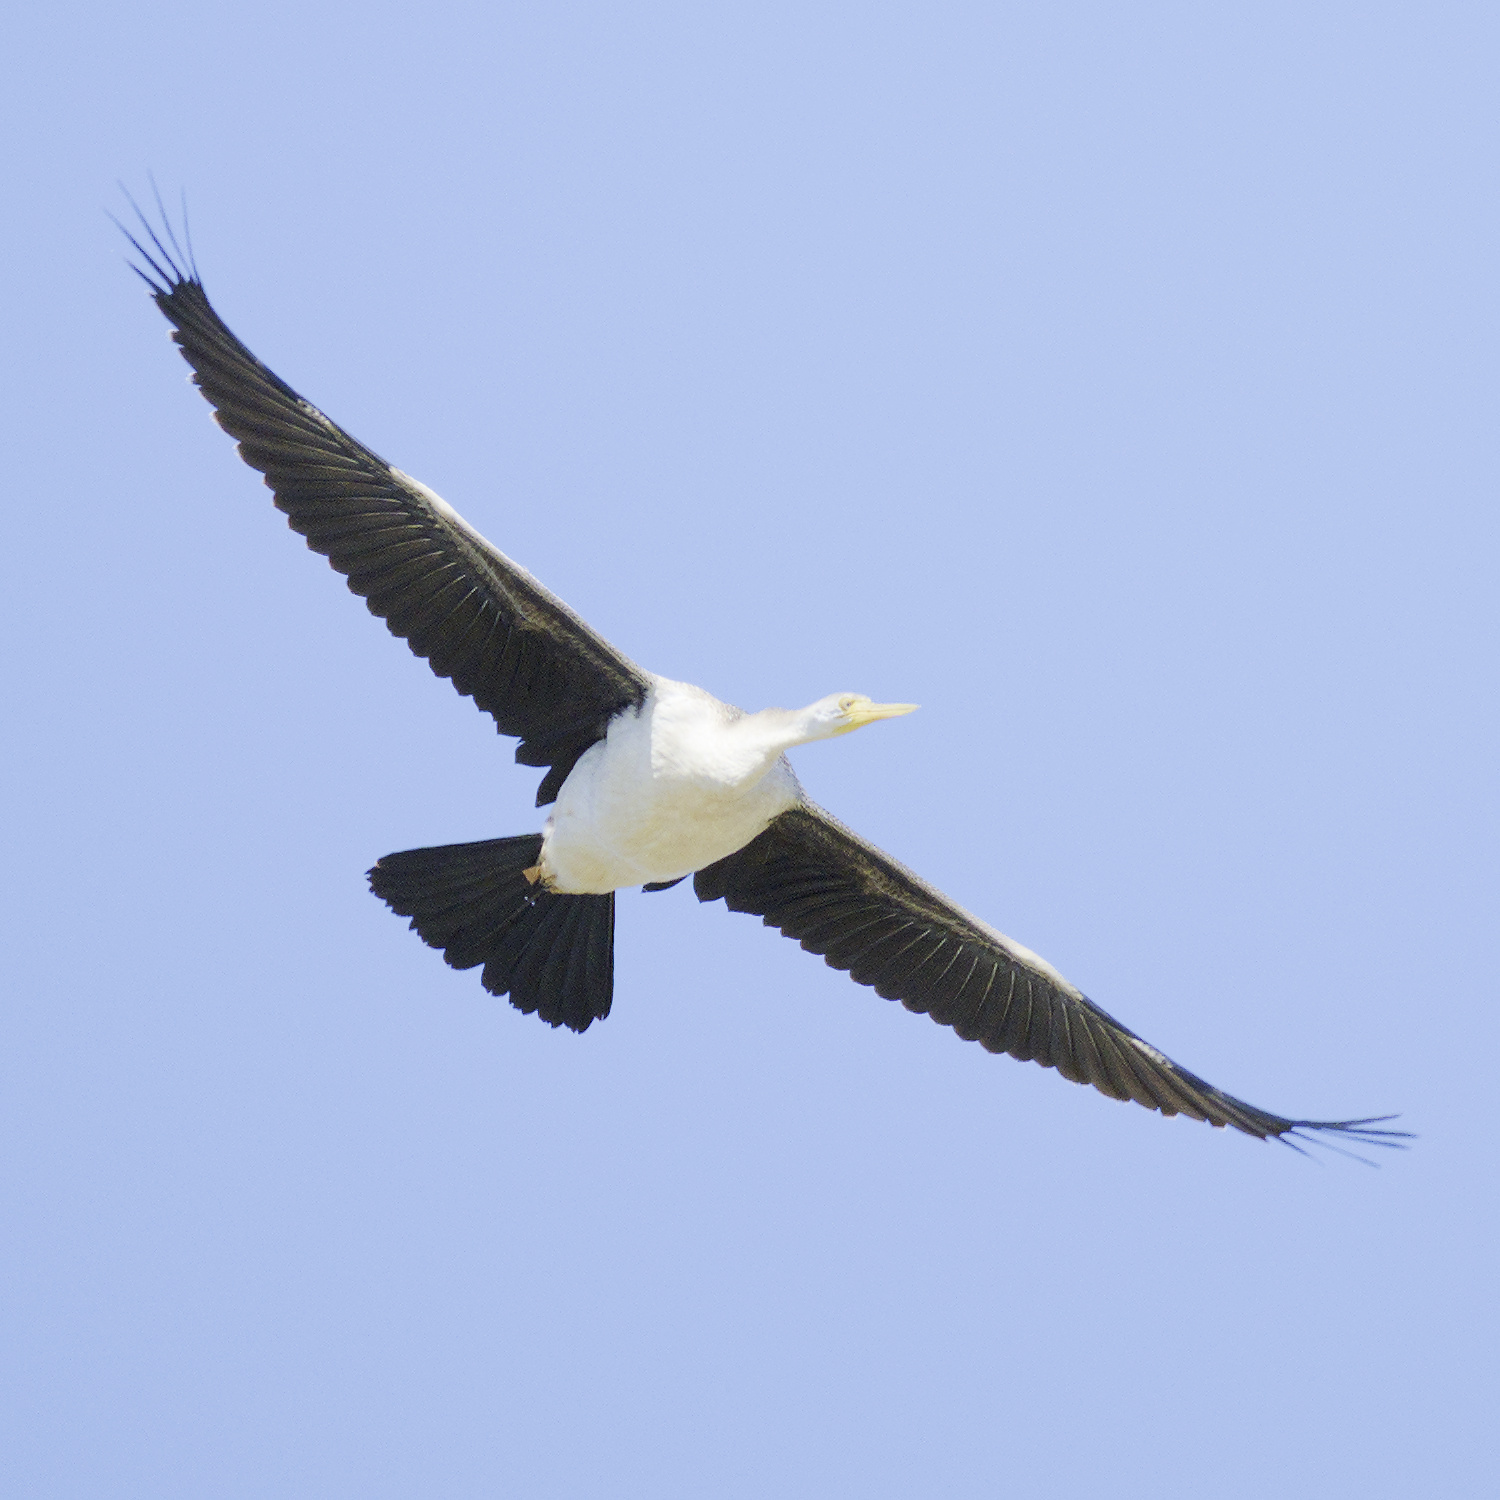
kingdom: Animalia
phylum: Chordata
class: Aves
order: Suliformes
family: Anhingidae
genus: Anhinga
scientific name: Anhinga novaehollandiae
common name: Australasian darter
